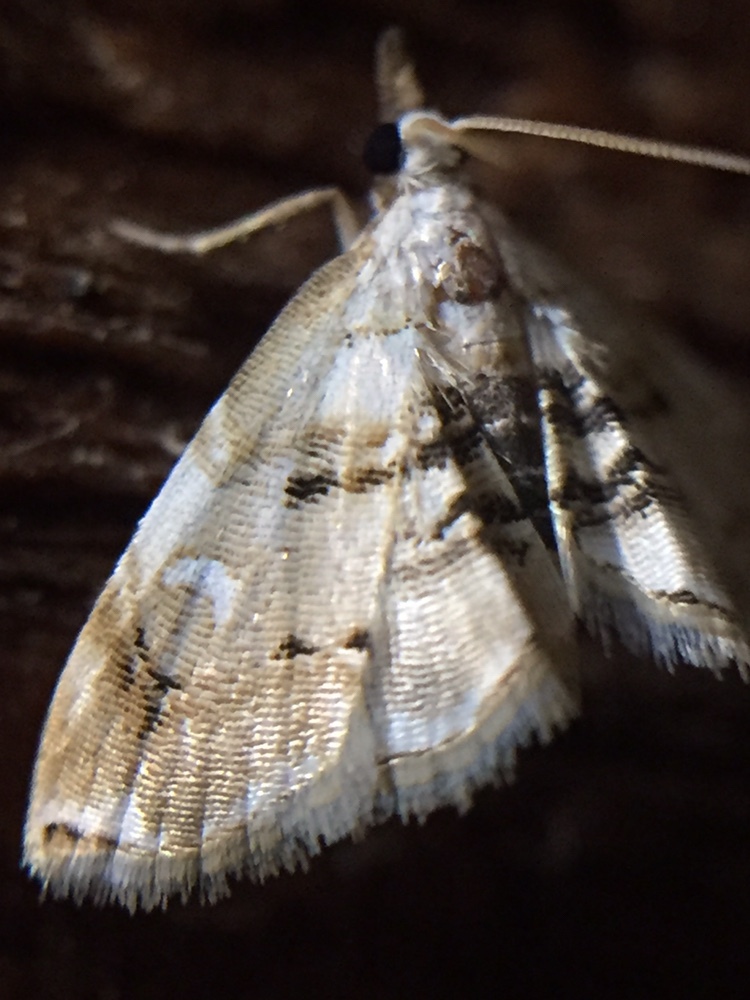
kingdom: Animalia
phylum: Arthropoda
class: Insecta
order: Lepidoptera
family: Crambidae
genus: Trichophysetis
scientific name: Trichophysetis
